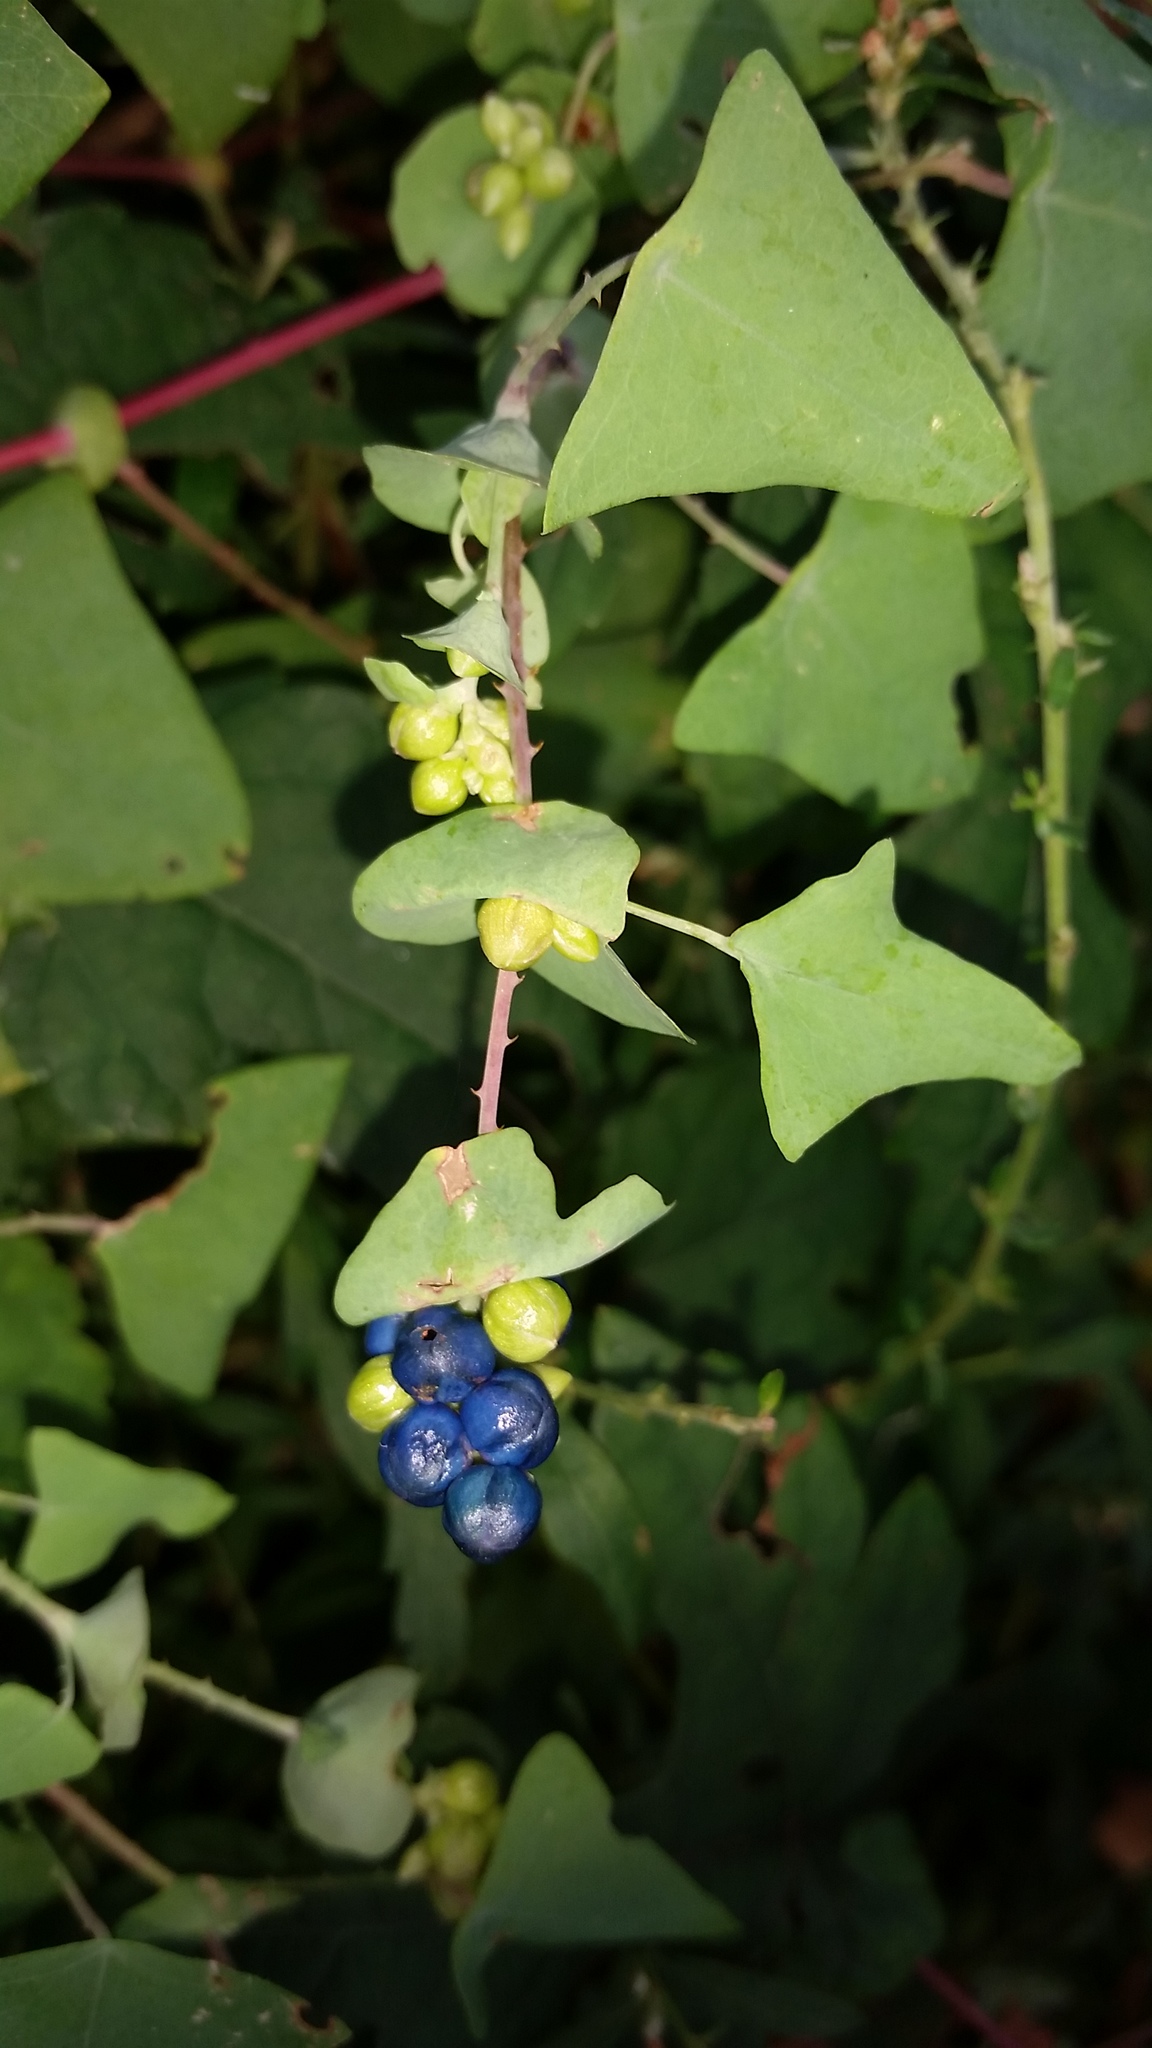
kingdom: Plantae
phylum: Tracheophyta
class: Magnoliopsida
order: Caryophyllales
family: Polygonaceae
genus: Persicaria
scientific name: Persicaria perfoliata
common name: Asiatic tearthumb
